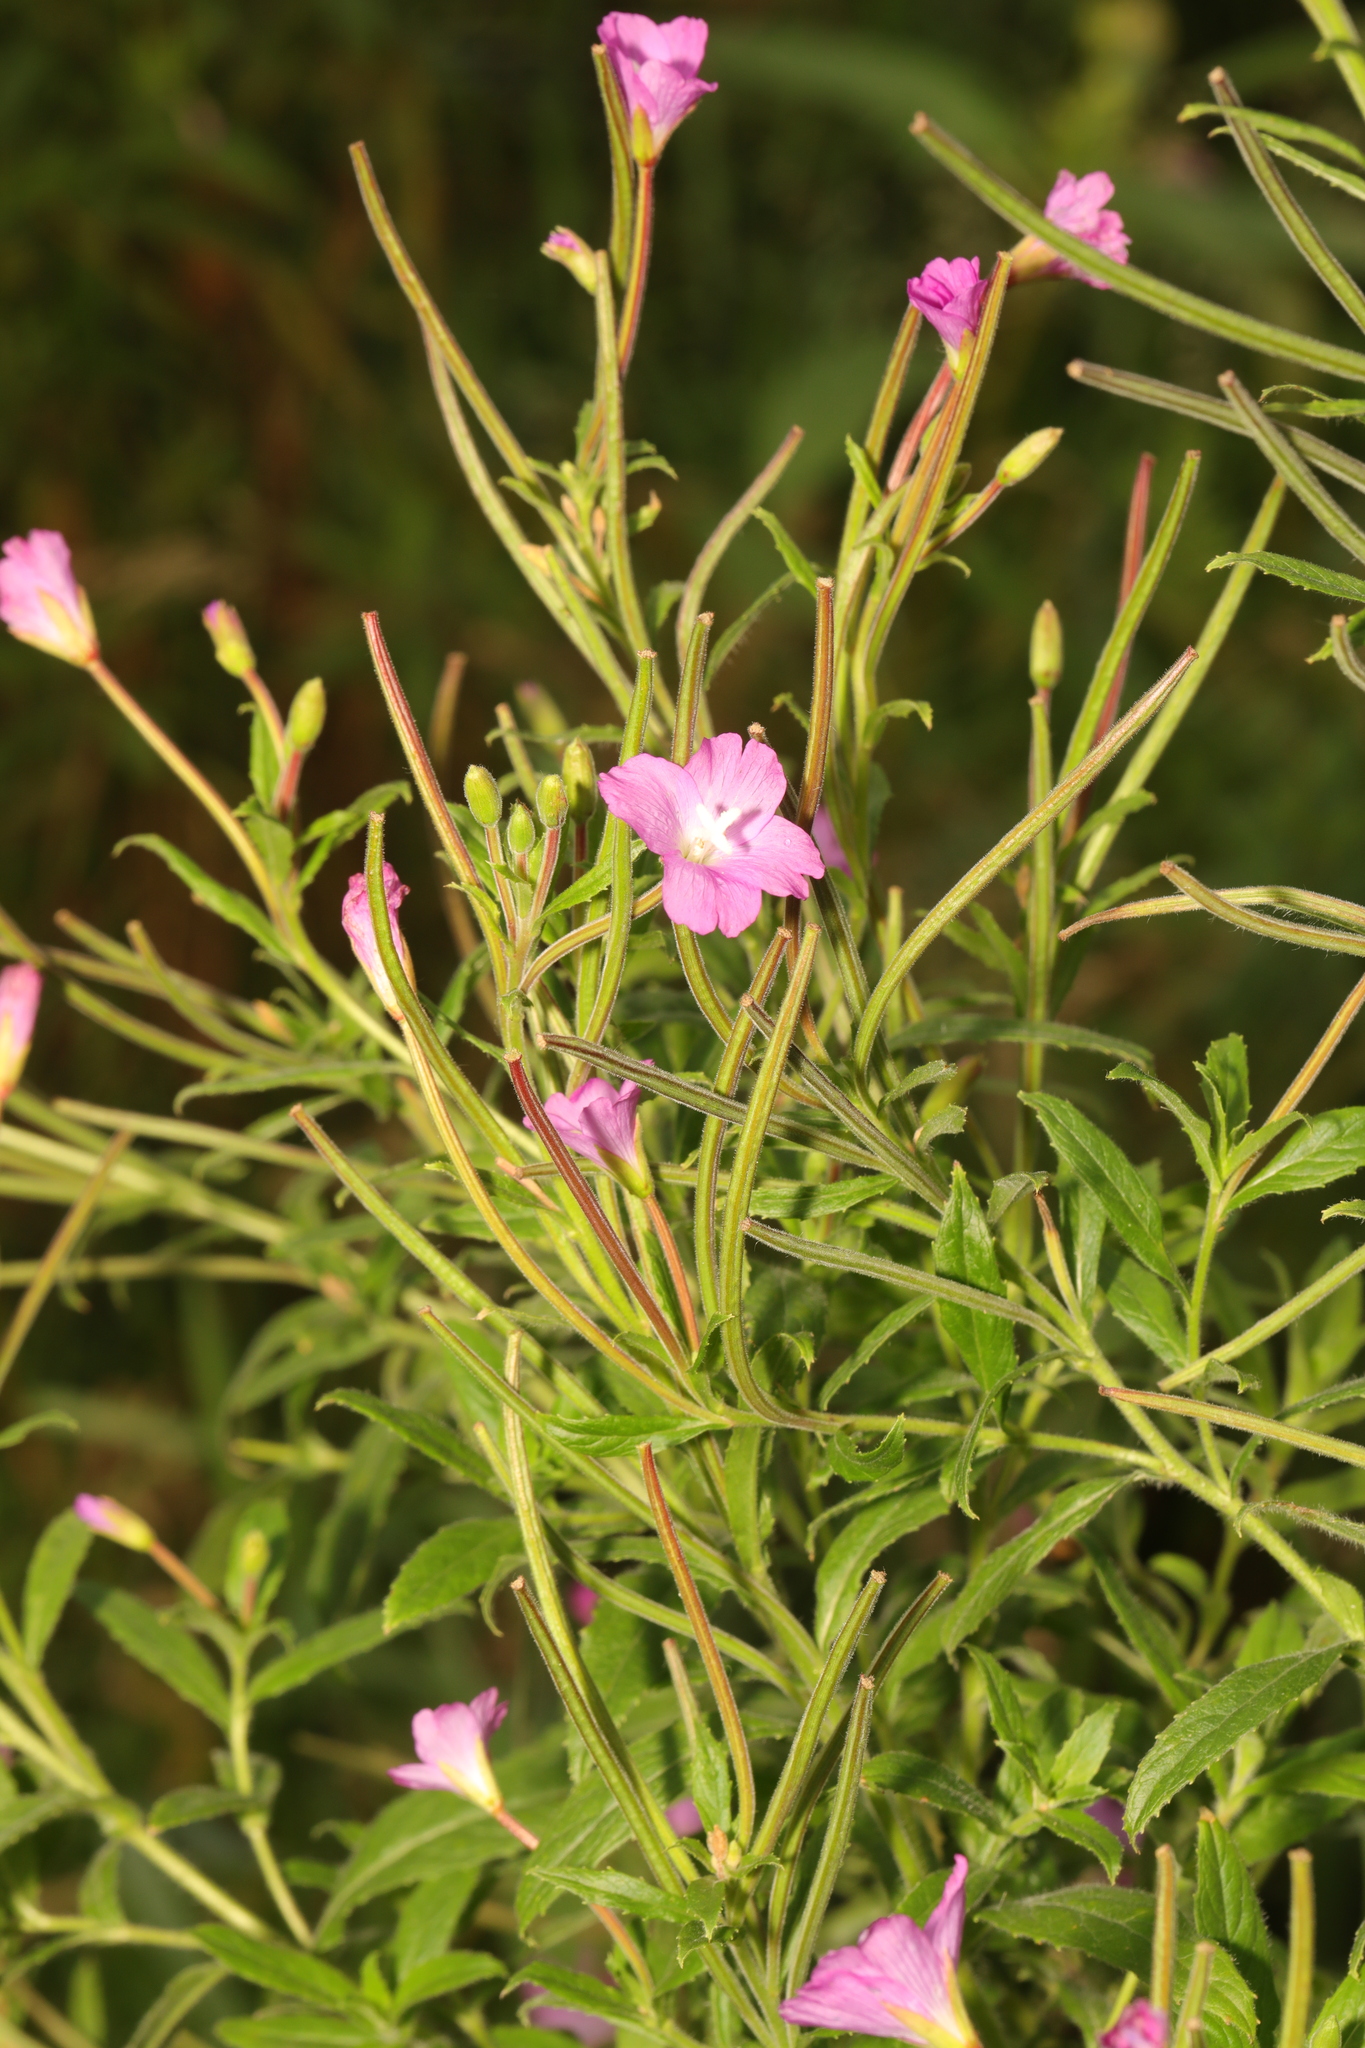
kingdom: Plantae
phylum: Tracheophyta
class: Magnoliopsida
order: Myrtales
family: Onagraceae
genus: Epilobium
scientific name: Epilobium hirsutum
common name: Great willowherb
